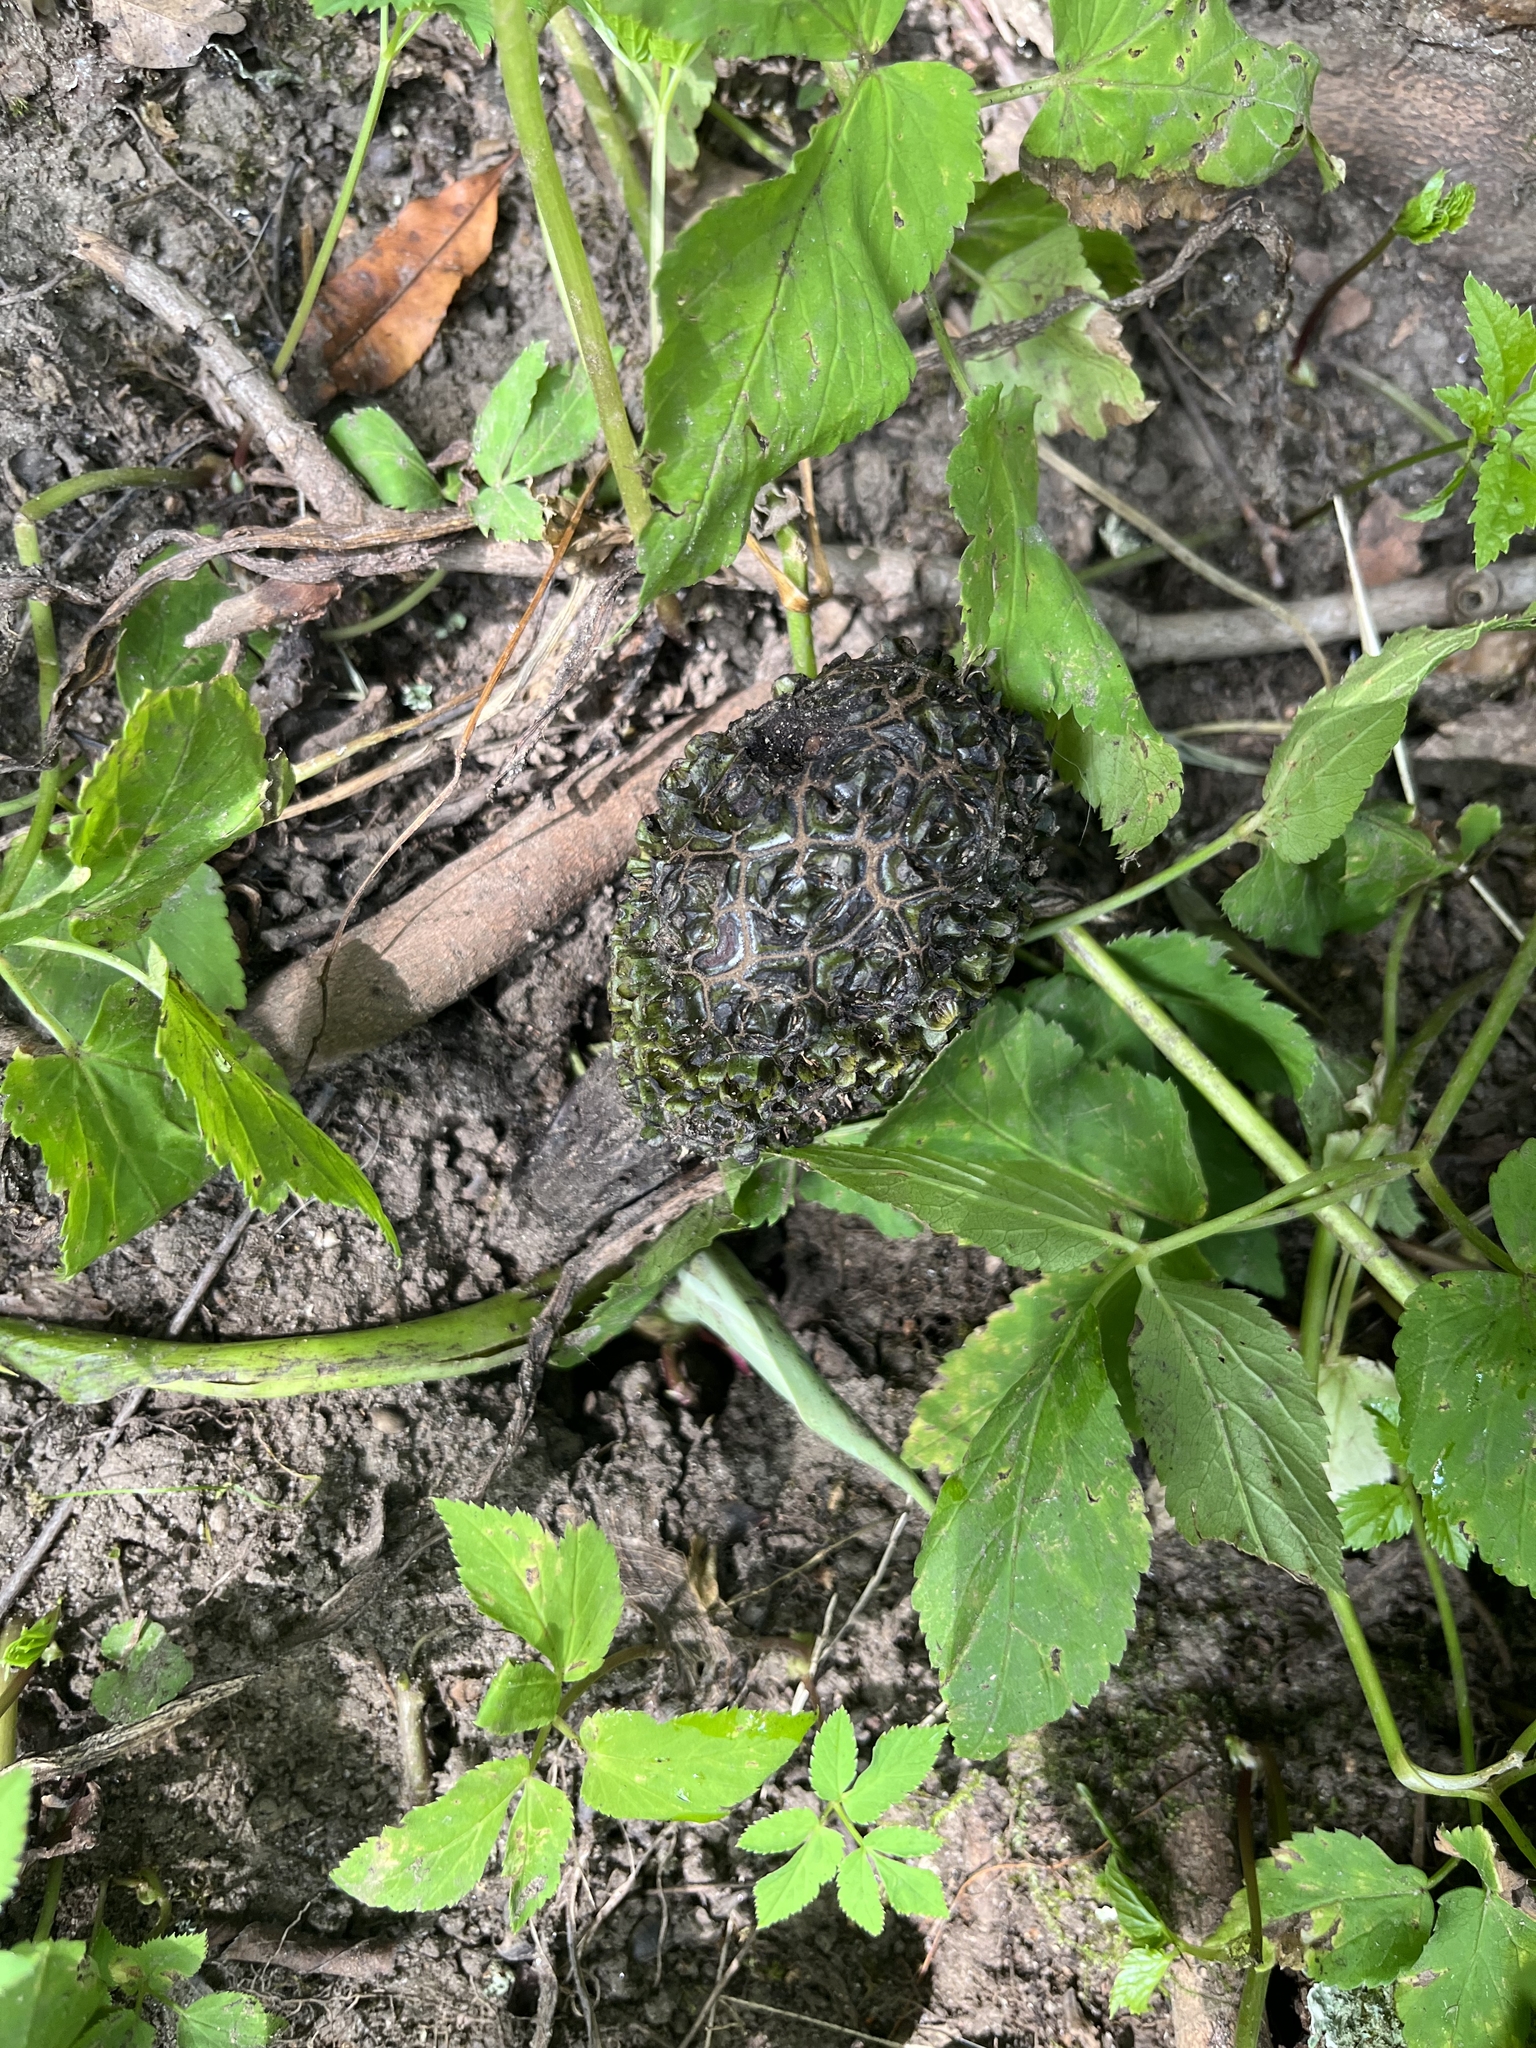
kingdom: Plantae
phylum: Tracheophyta
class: Liliopsida
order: Alismatales
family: Araceae
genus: Symplocarpus
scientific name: Symplocarpus foetidus
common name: Eastern skunk cabbage
